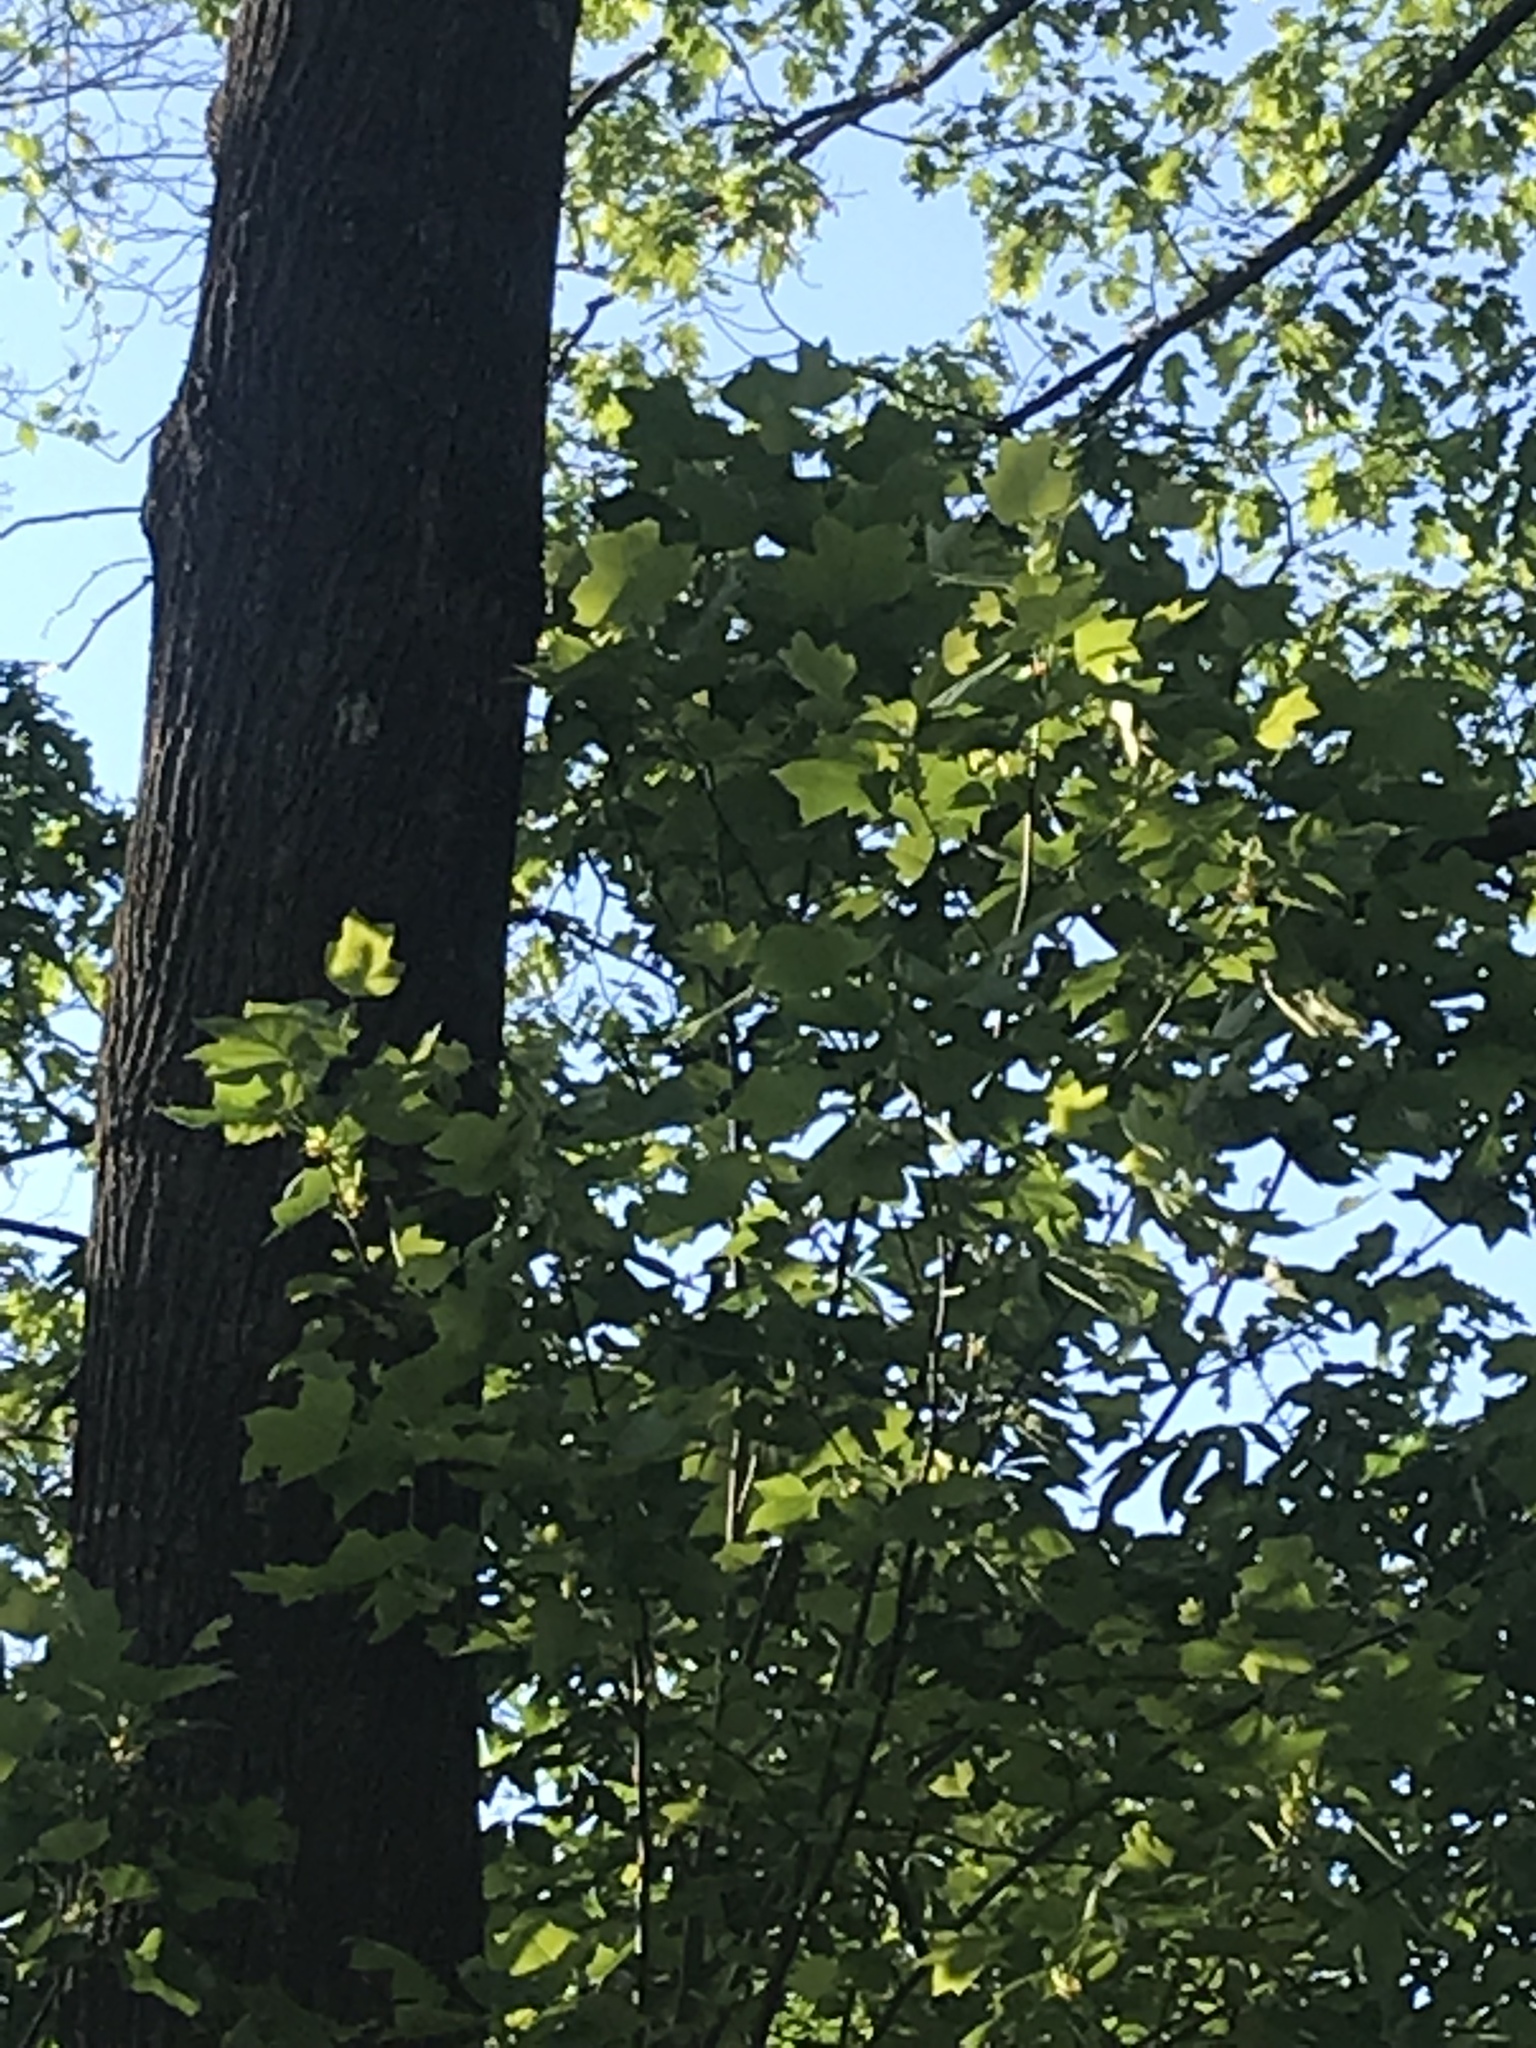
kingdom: Plantae
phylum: Tracheophyta
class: Magnoliopsida
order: Magnoliales
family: Magnoliaceae
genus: Liriodendron
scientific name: Liriodendron tulipifera
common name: Tulip tree
